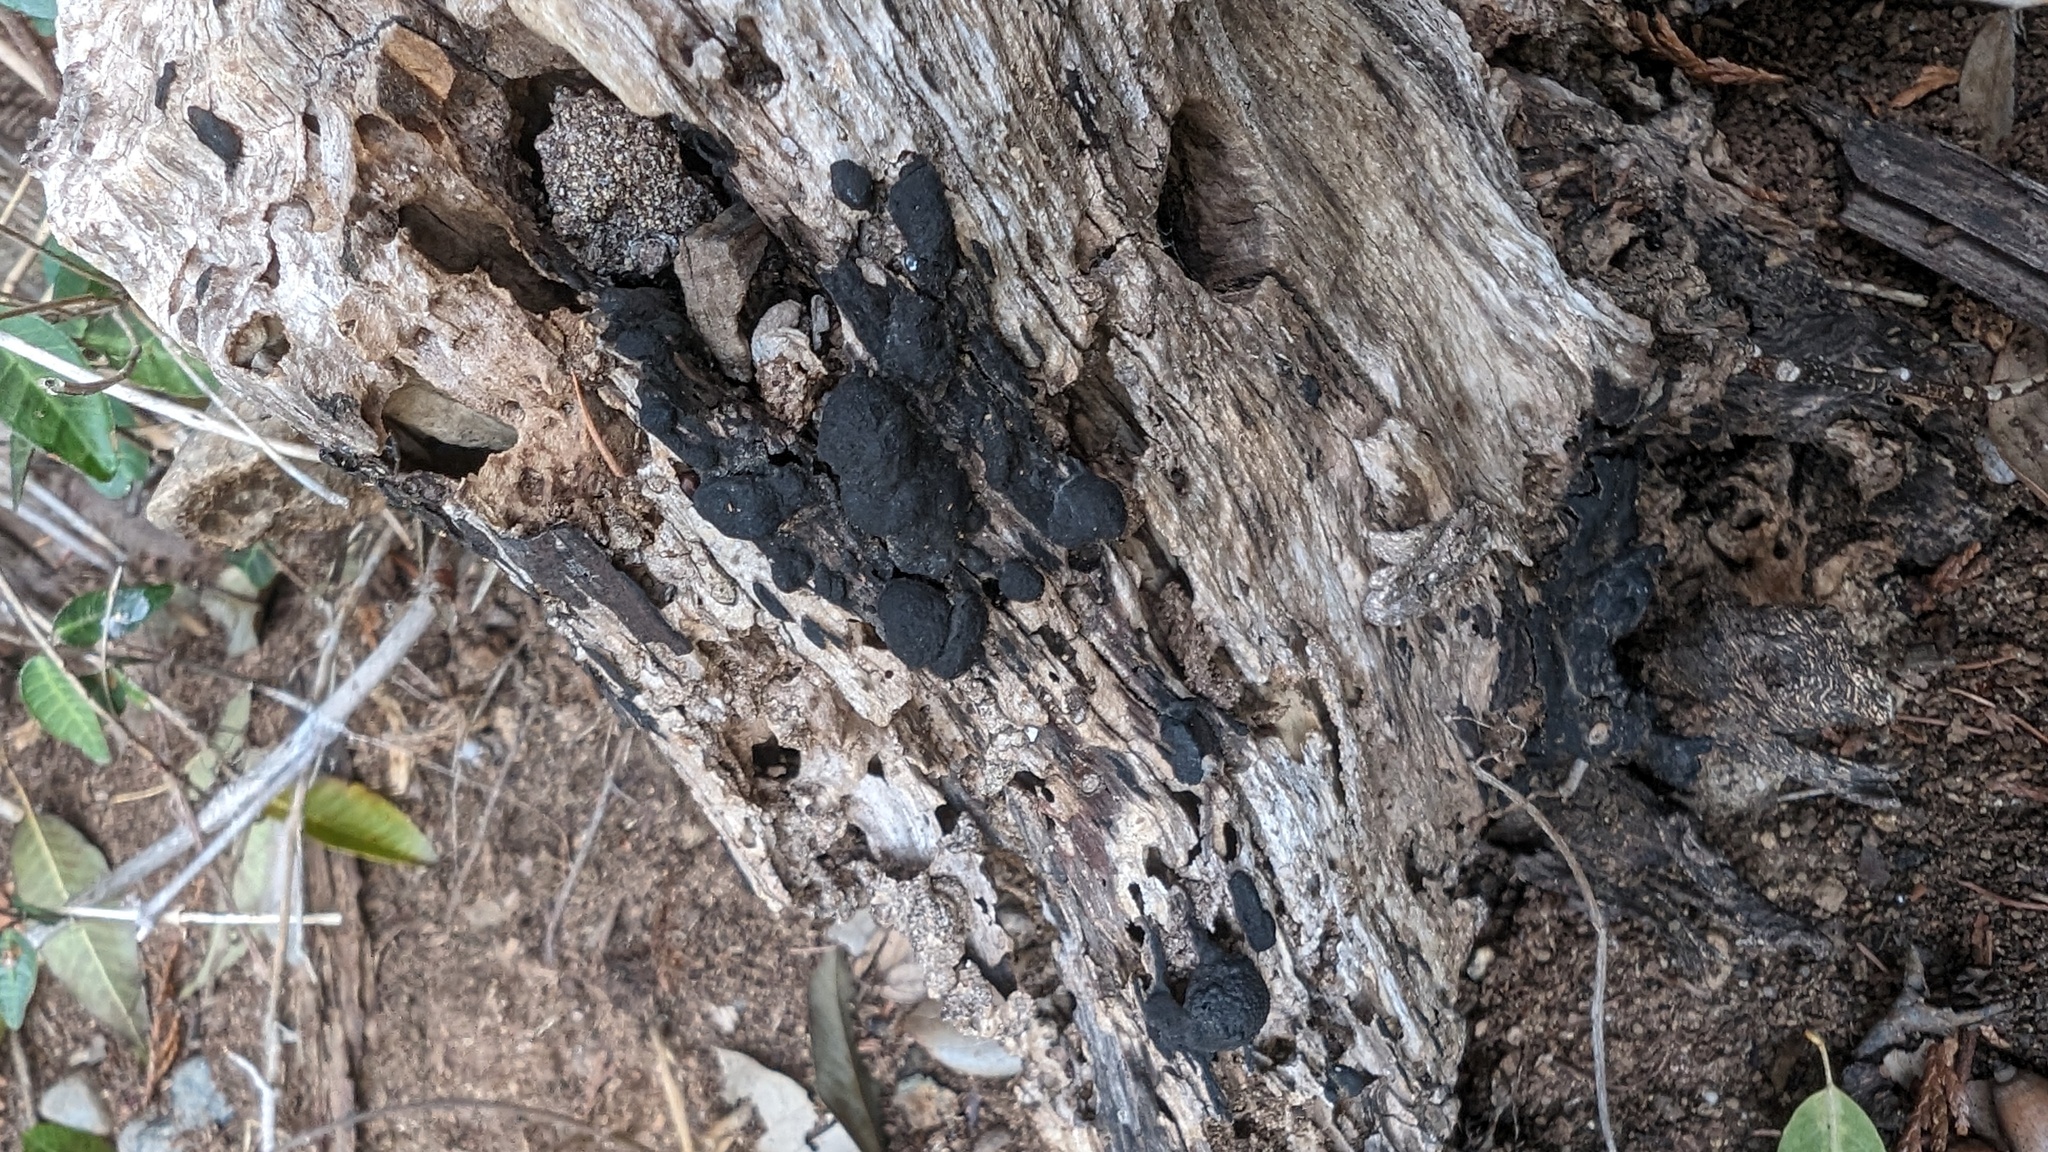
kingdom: Fungi
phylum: Ascomycota
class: Sordariomycetes
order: Xylariales
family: Hypoxylaceae
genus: Annulohypoxylon
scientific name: Annulohypoxylon truncatum
